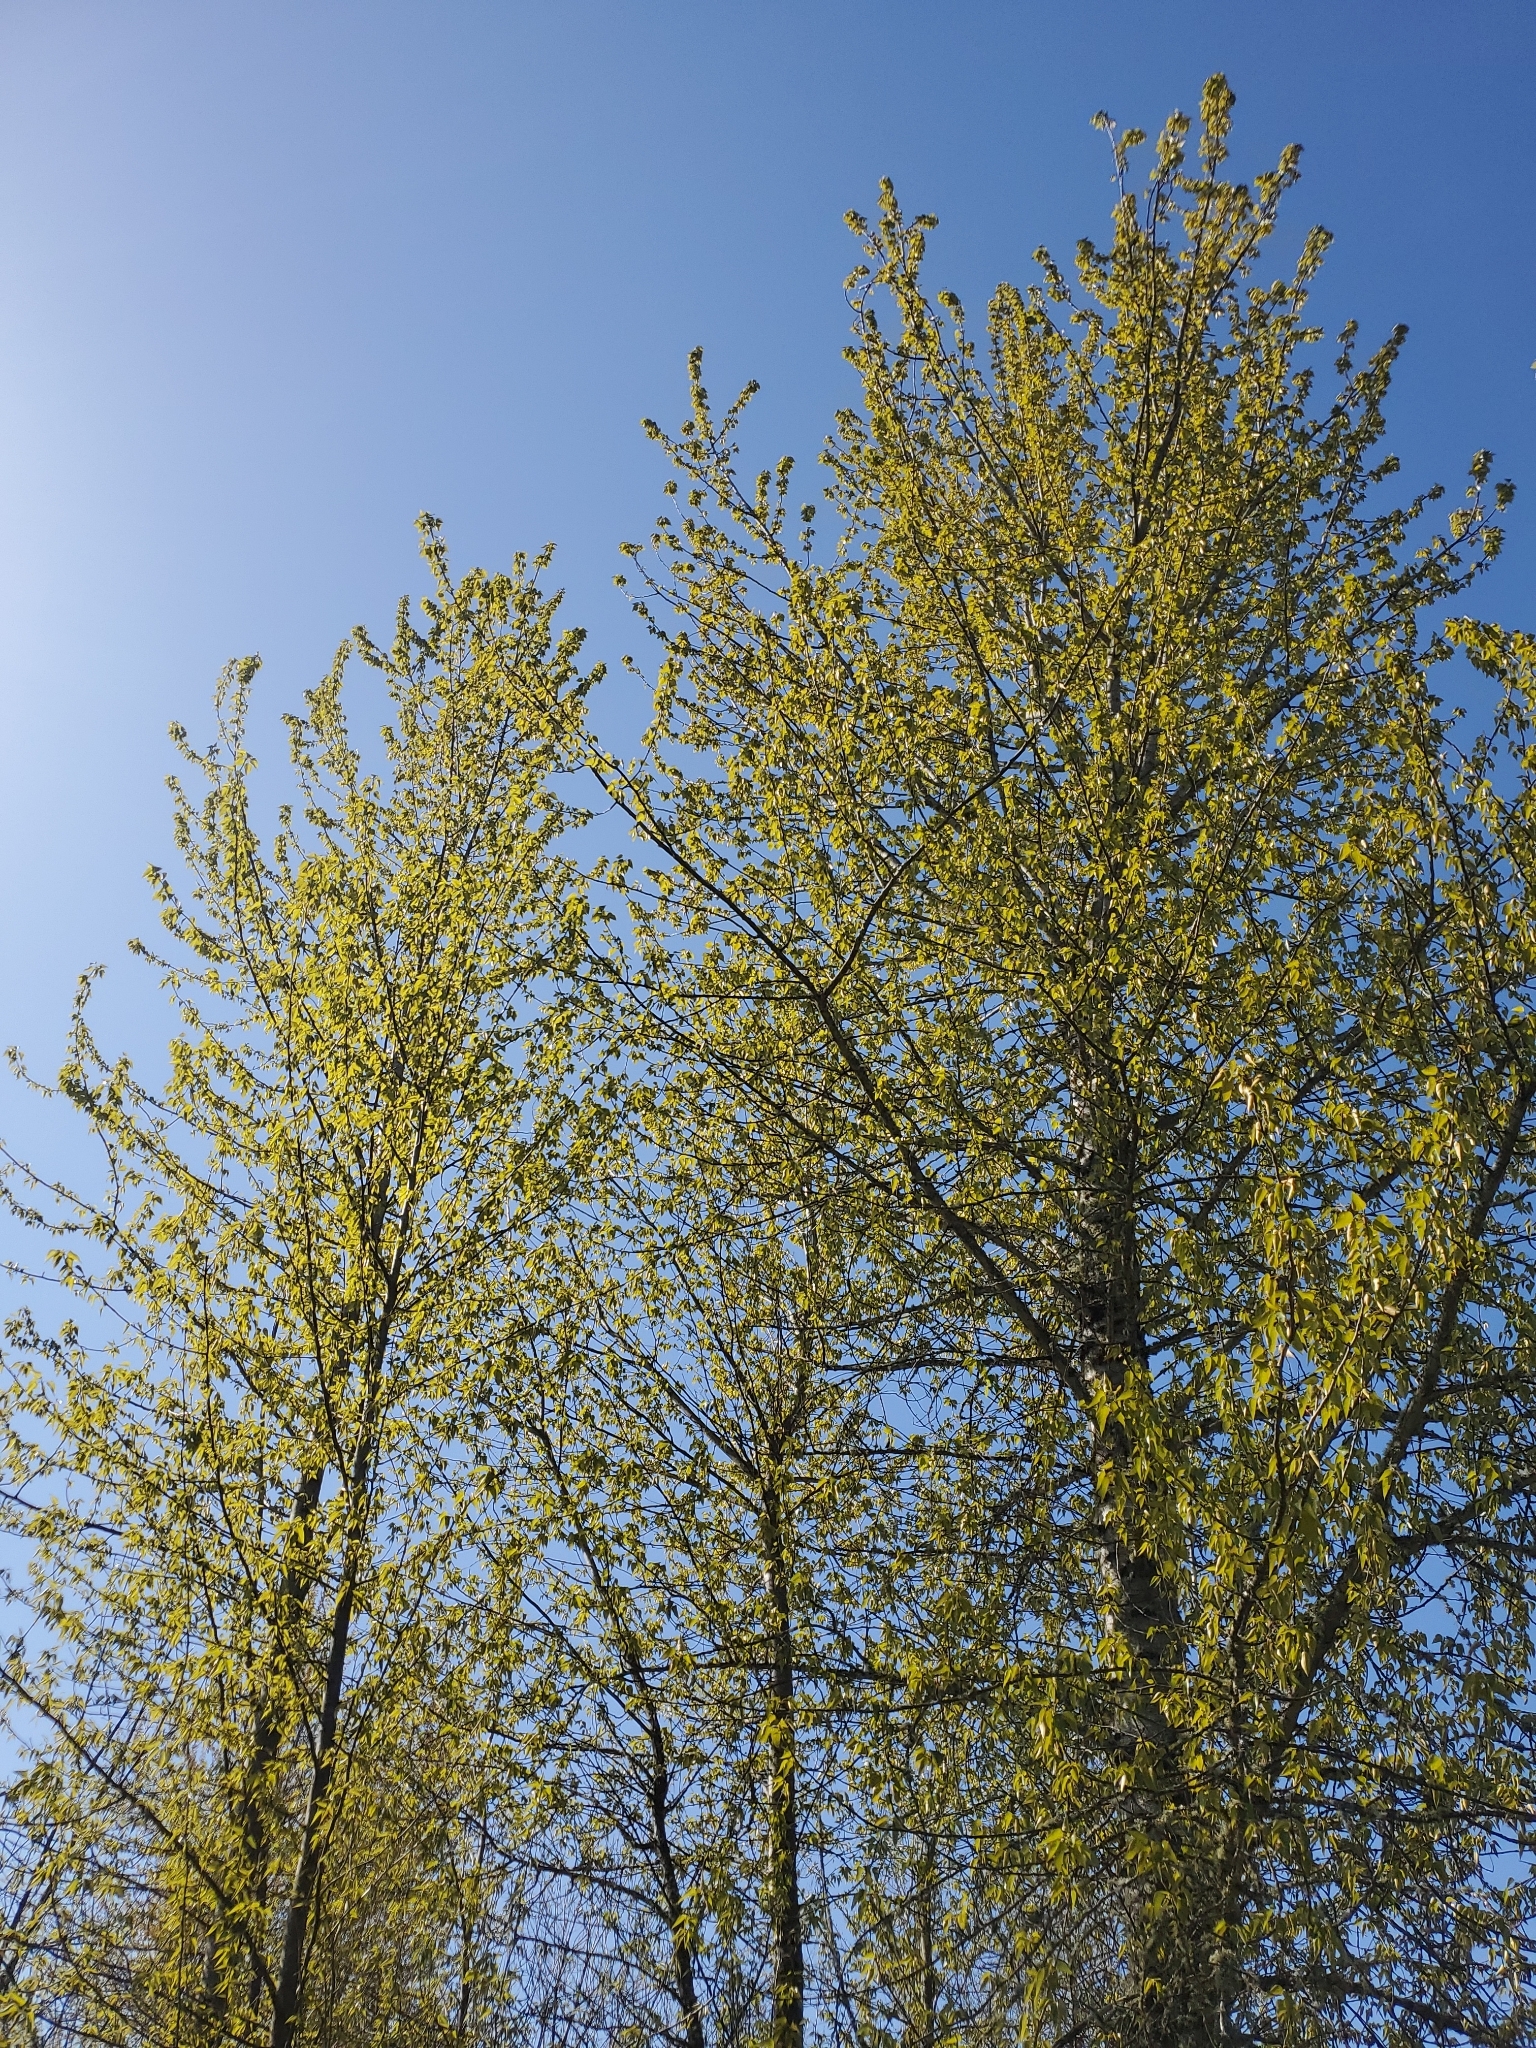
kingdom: Plantae
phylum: Tracheophyta
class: Magnoliopsida
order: Malpighiales
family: Salicaceae
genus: Populus
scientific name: Populus trichocarpa
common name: Black cottonwood
